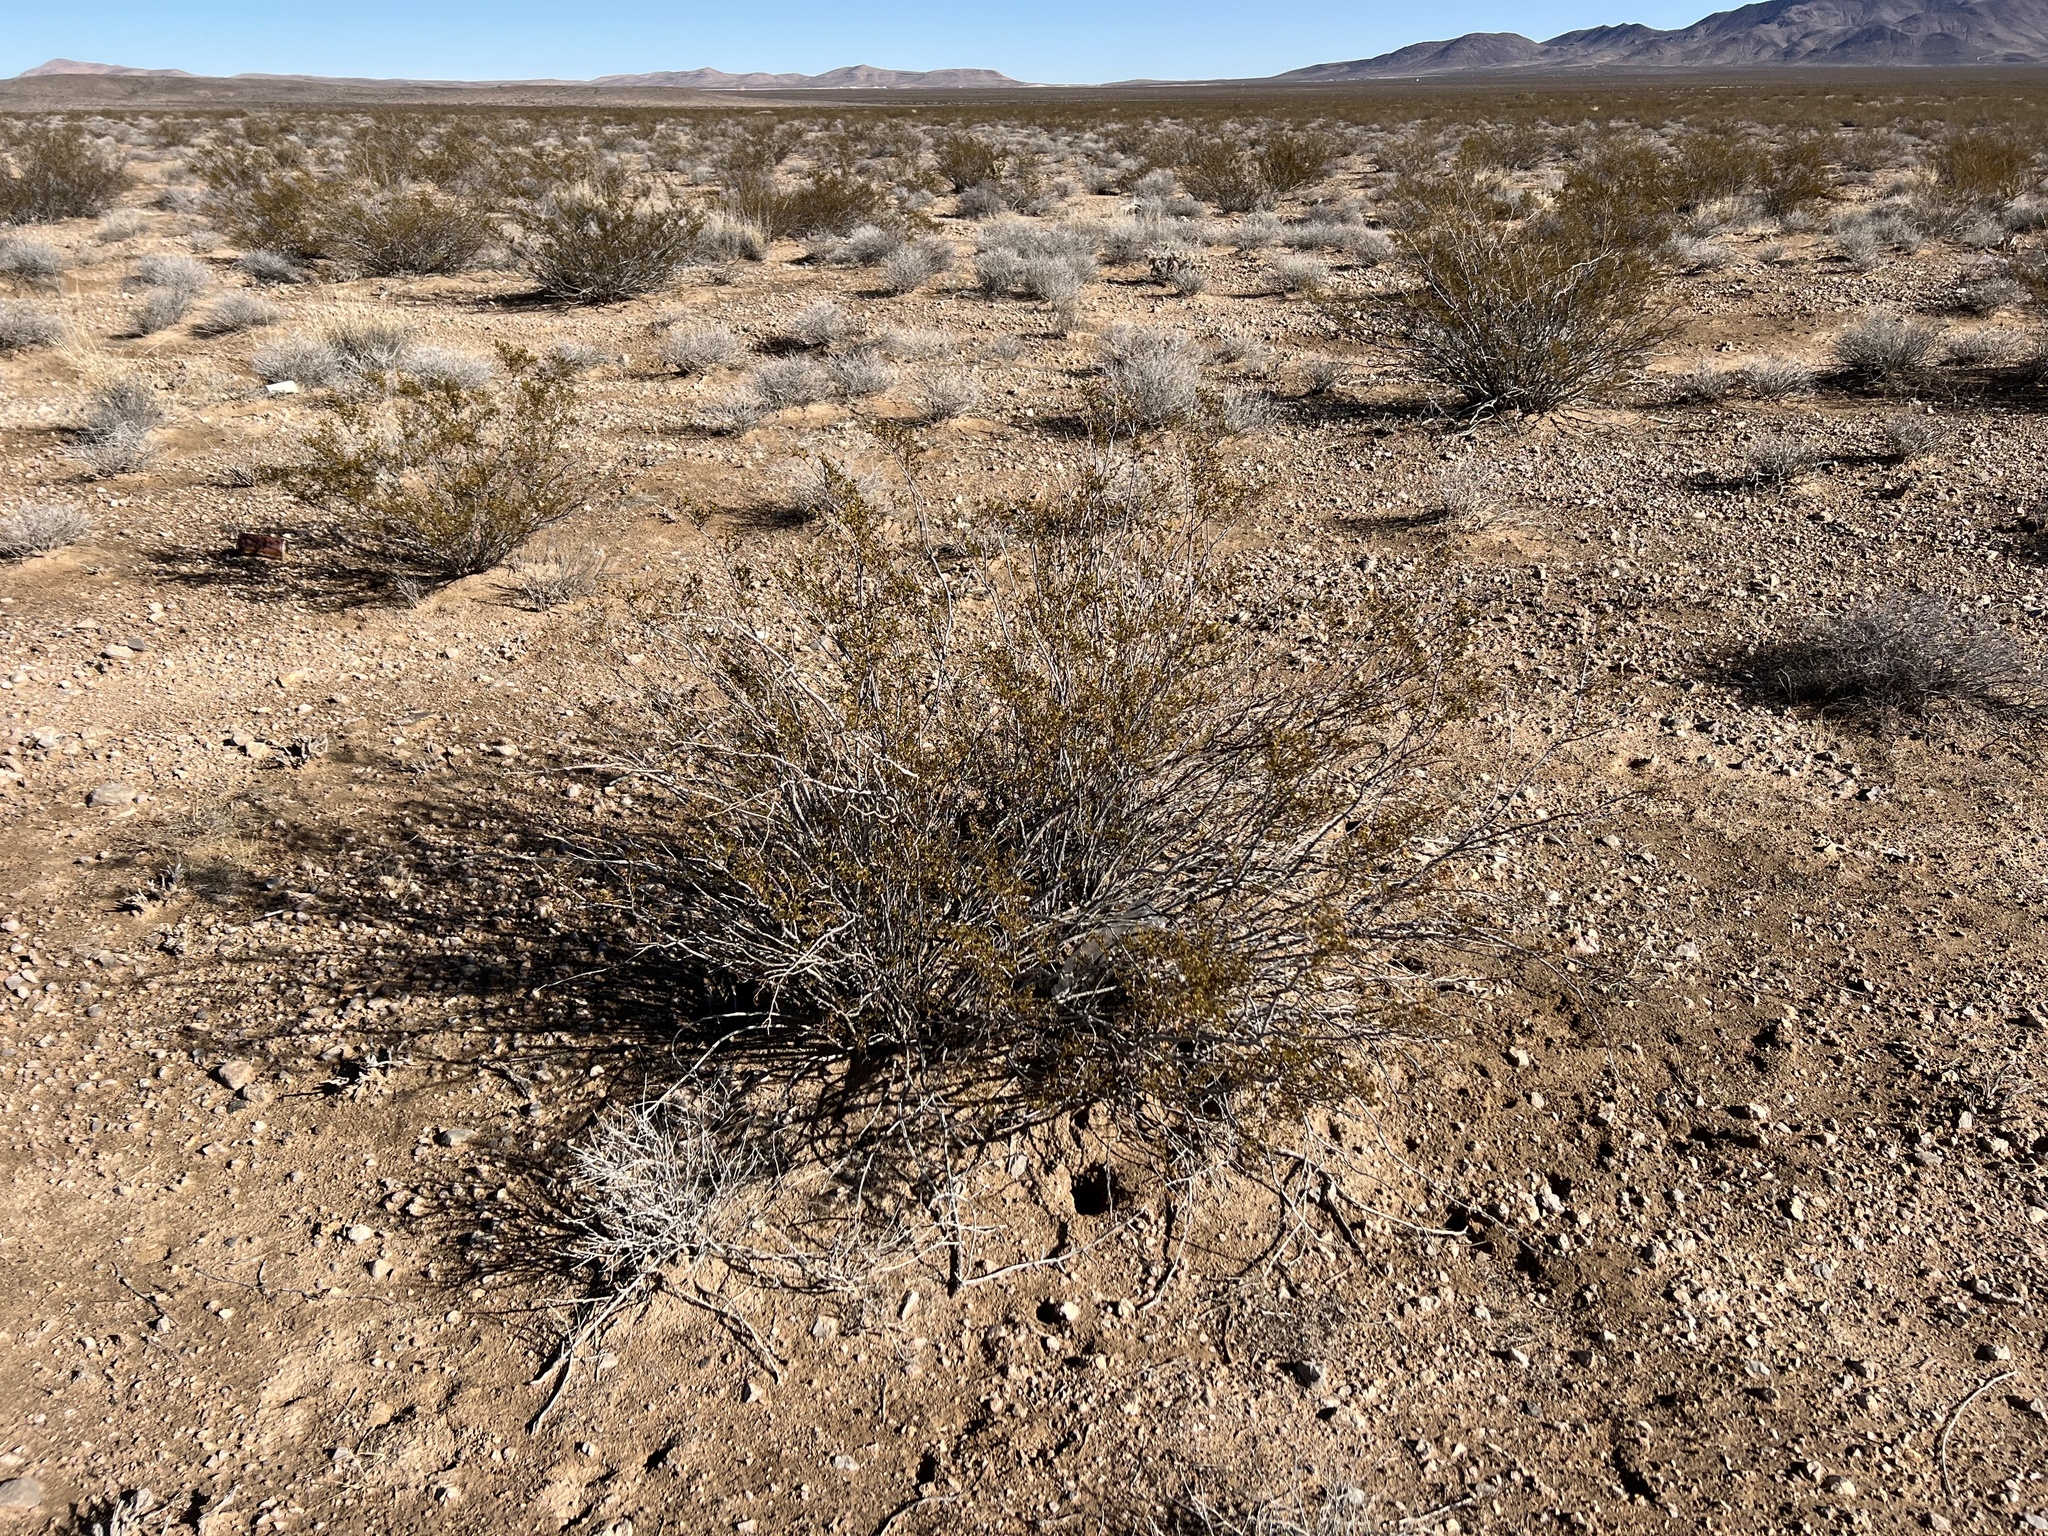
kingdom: Plantae
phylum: Tracheophyta
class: Magnoliopsida
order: Zygophyllales
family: Zygophyllaceae
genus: Larrea
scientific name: Larrea tridentata
